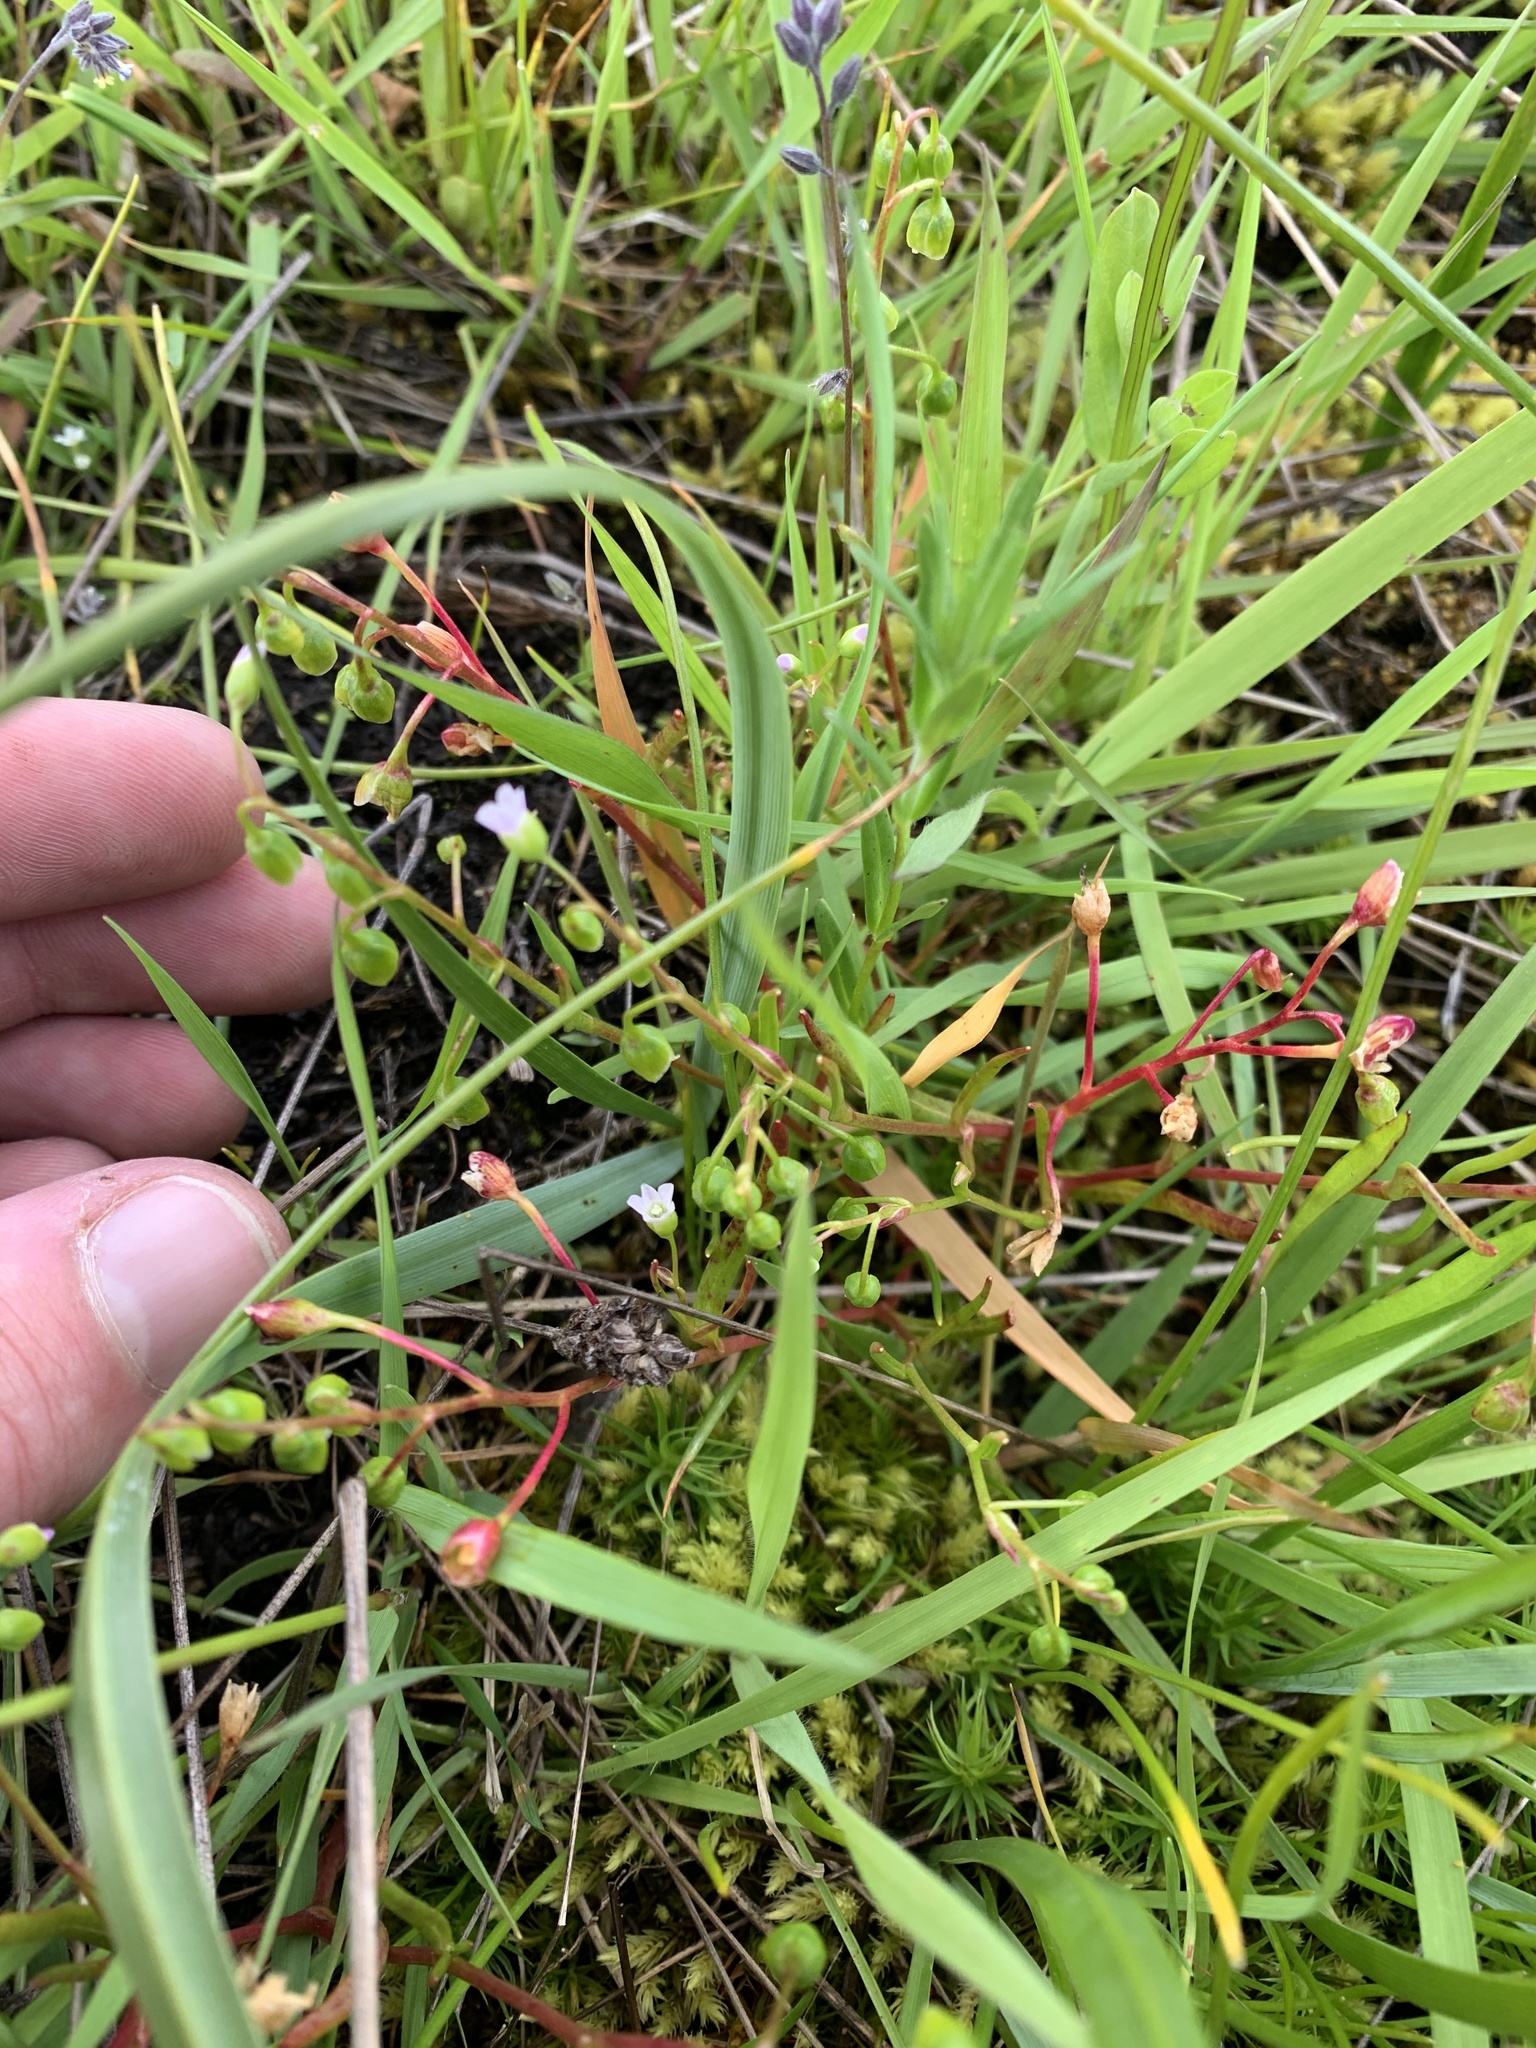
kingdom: Plantae
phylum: Tracheophyta
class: Magnoliopsida
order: Caryophyllales
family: Montiaceae
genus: Montia
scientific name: Montia linearis
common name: Narrow-leaf montia
